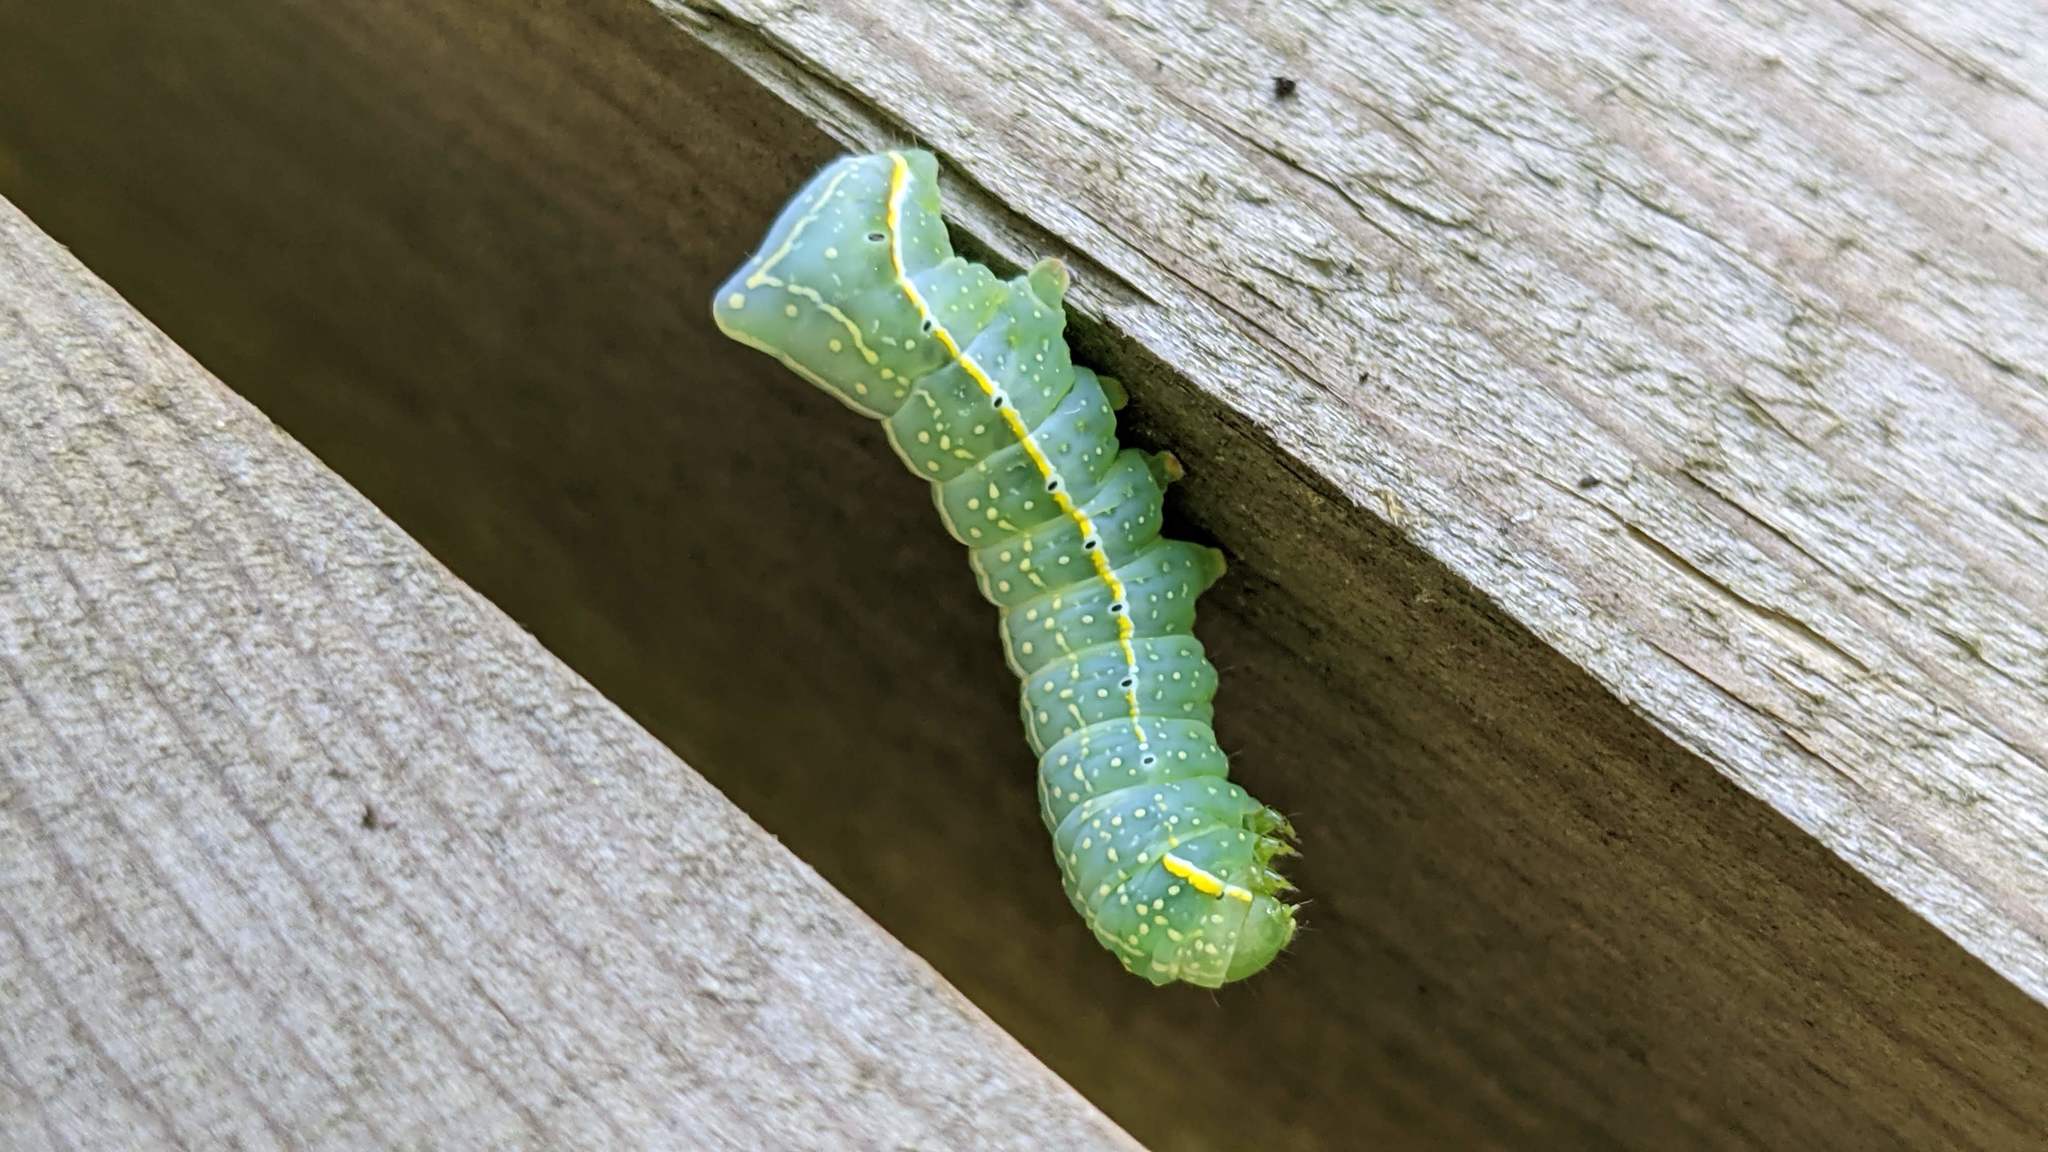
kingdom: Animalia
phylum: Arthropoda
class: Insecta
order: Lepidoptera
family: Noctuidae
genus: Amphipyra
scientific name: Amphipyra pyramidoides
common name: American copper underwing
